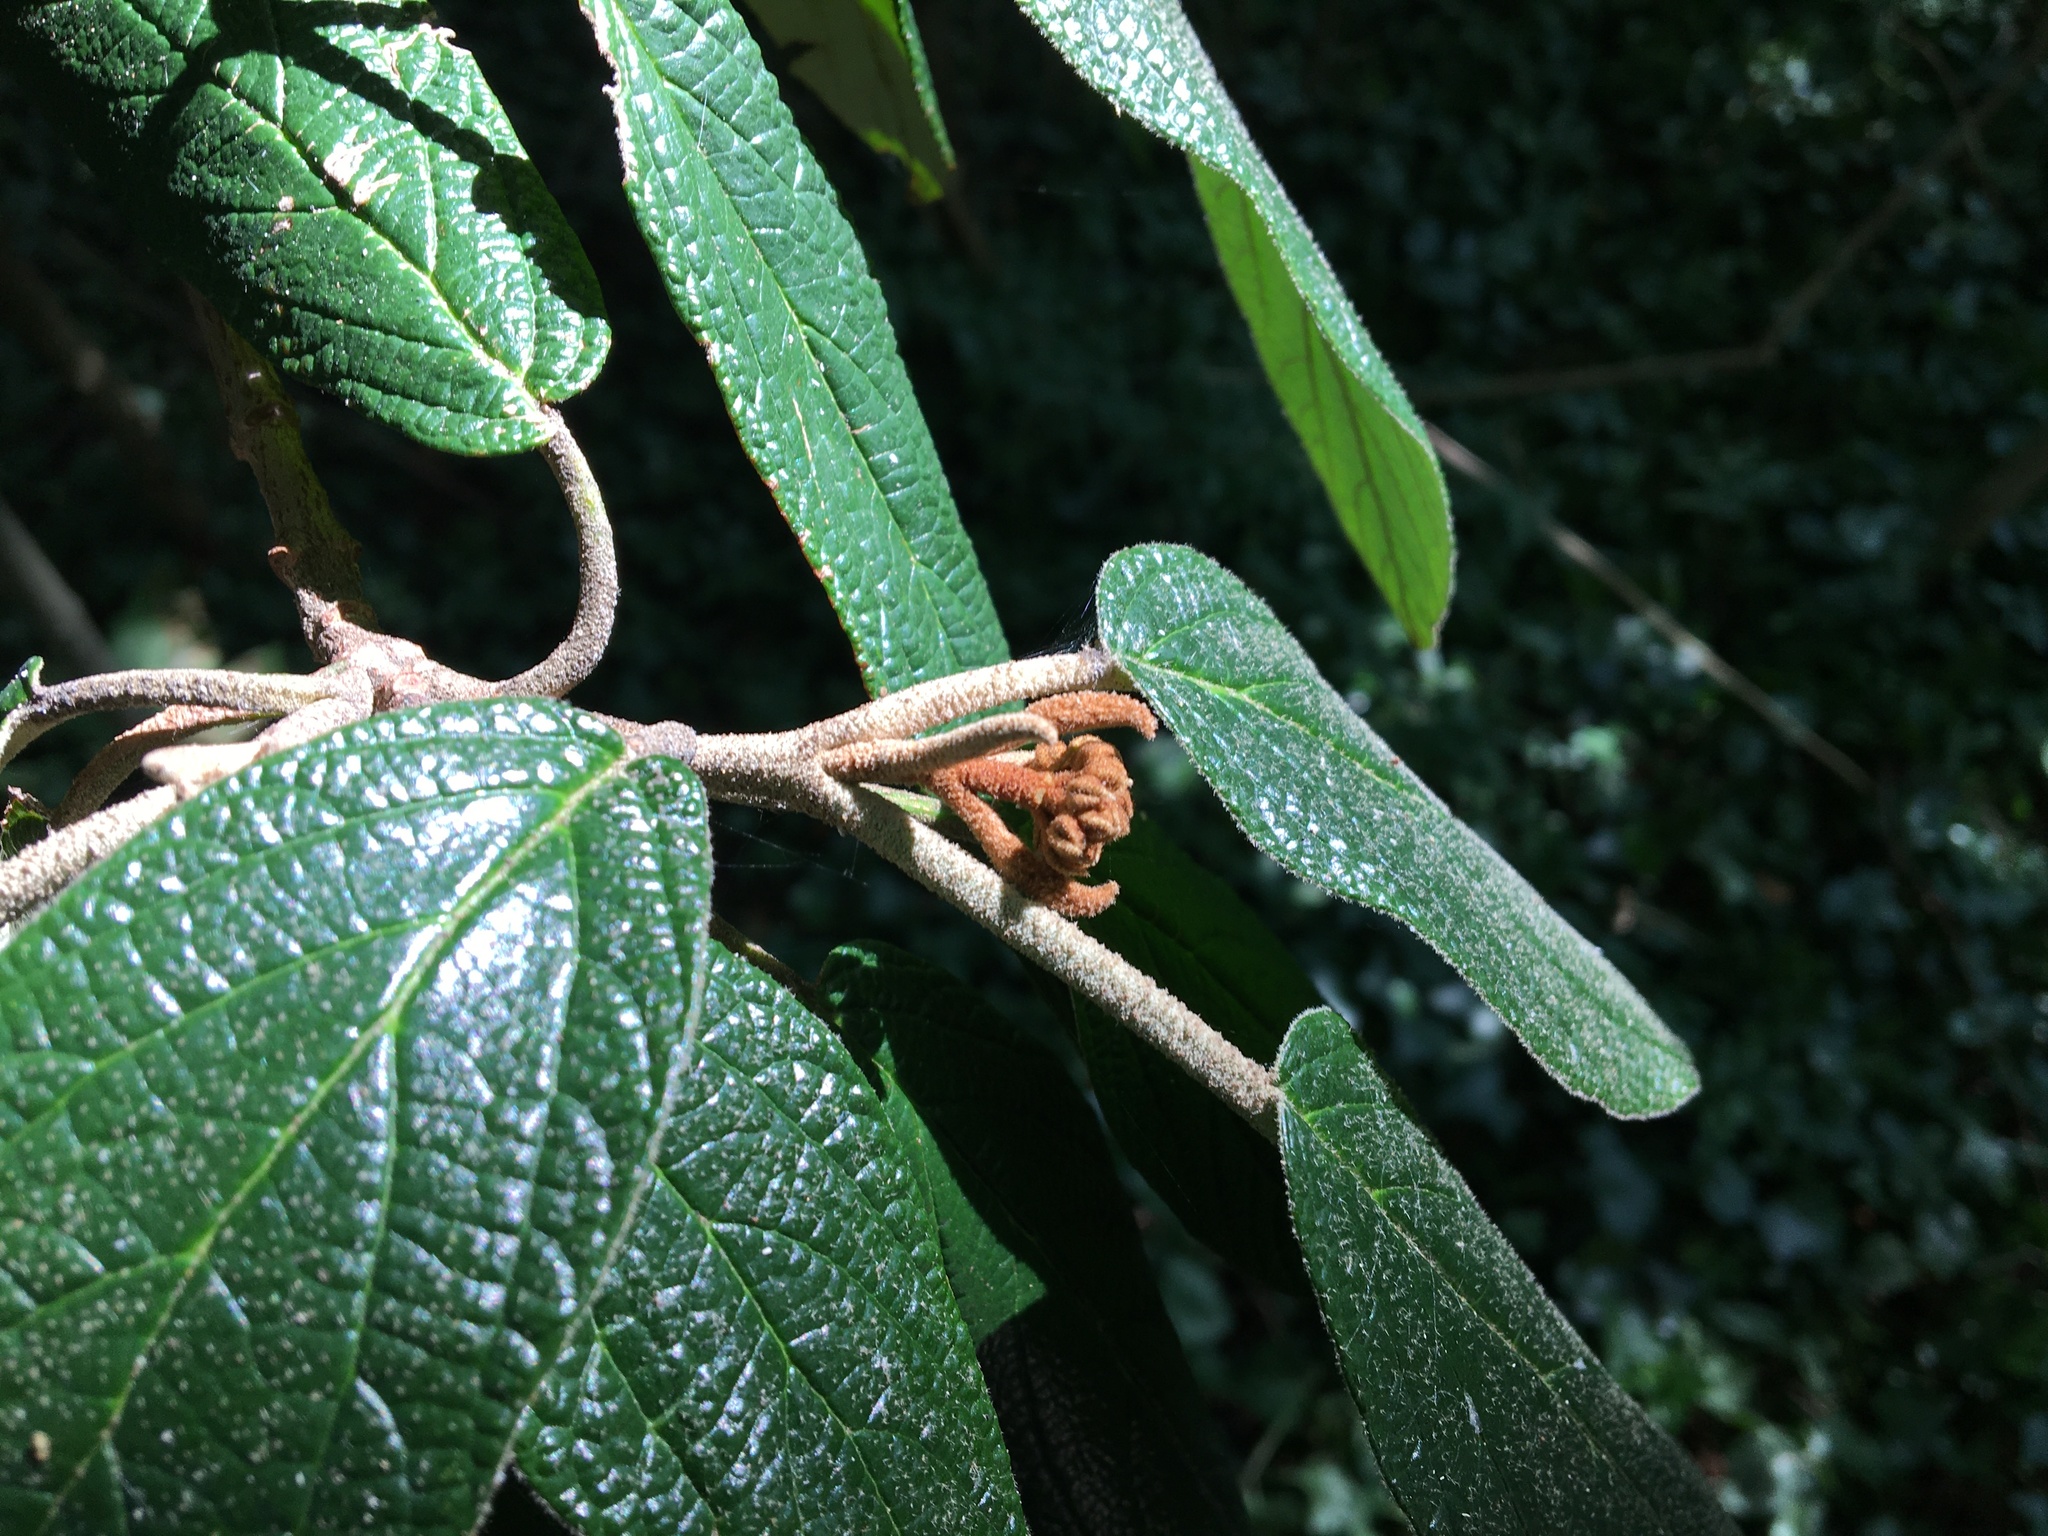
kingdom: Plantae
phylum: Tracheophyta
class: Magnoliopsida
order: Dipsacales
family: Viburnaceae
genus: Viburnum
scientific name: Viburnum rhytidophyllum
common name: Wrinkled viburnum
